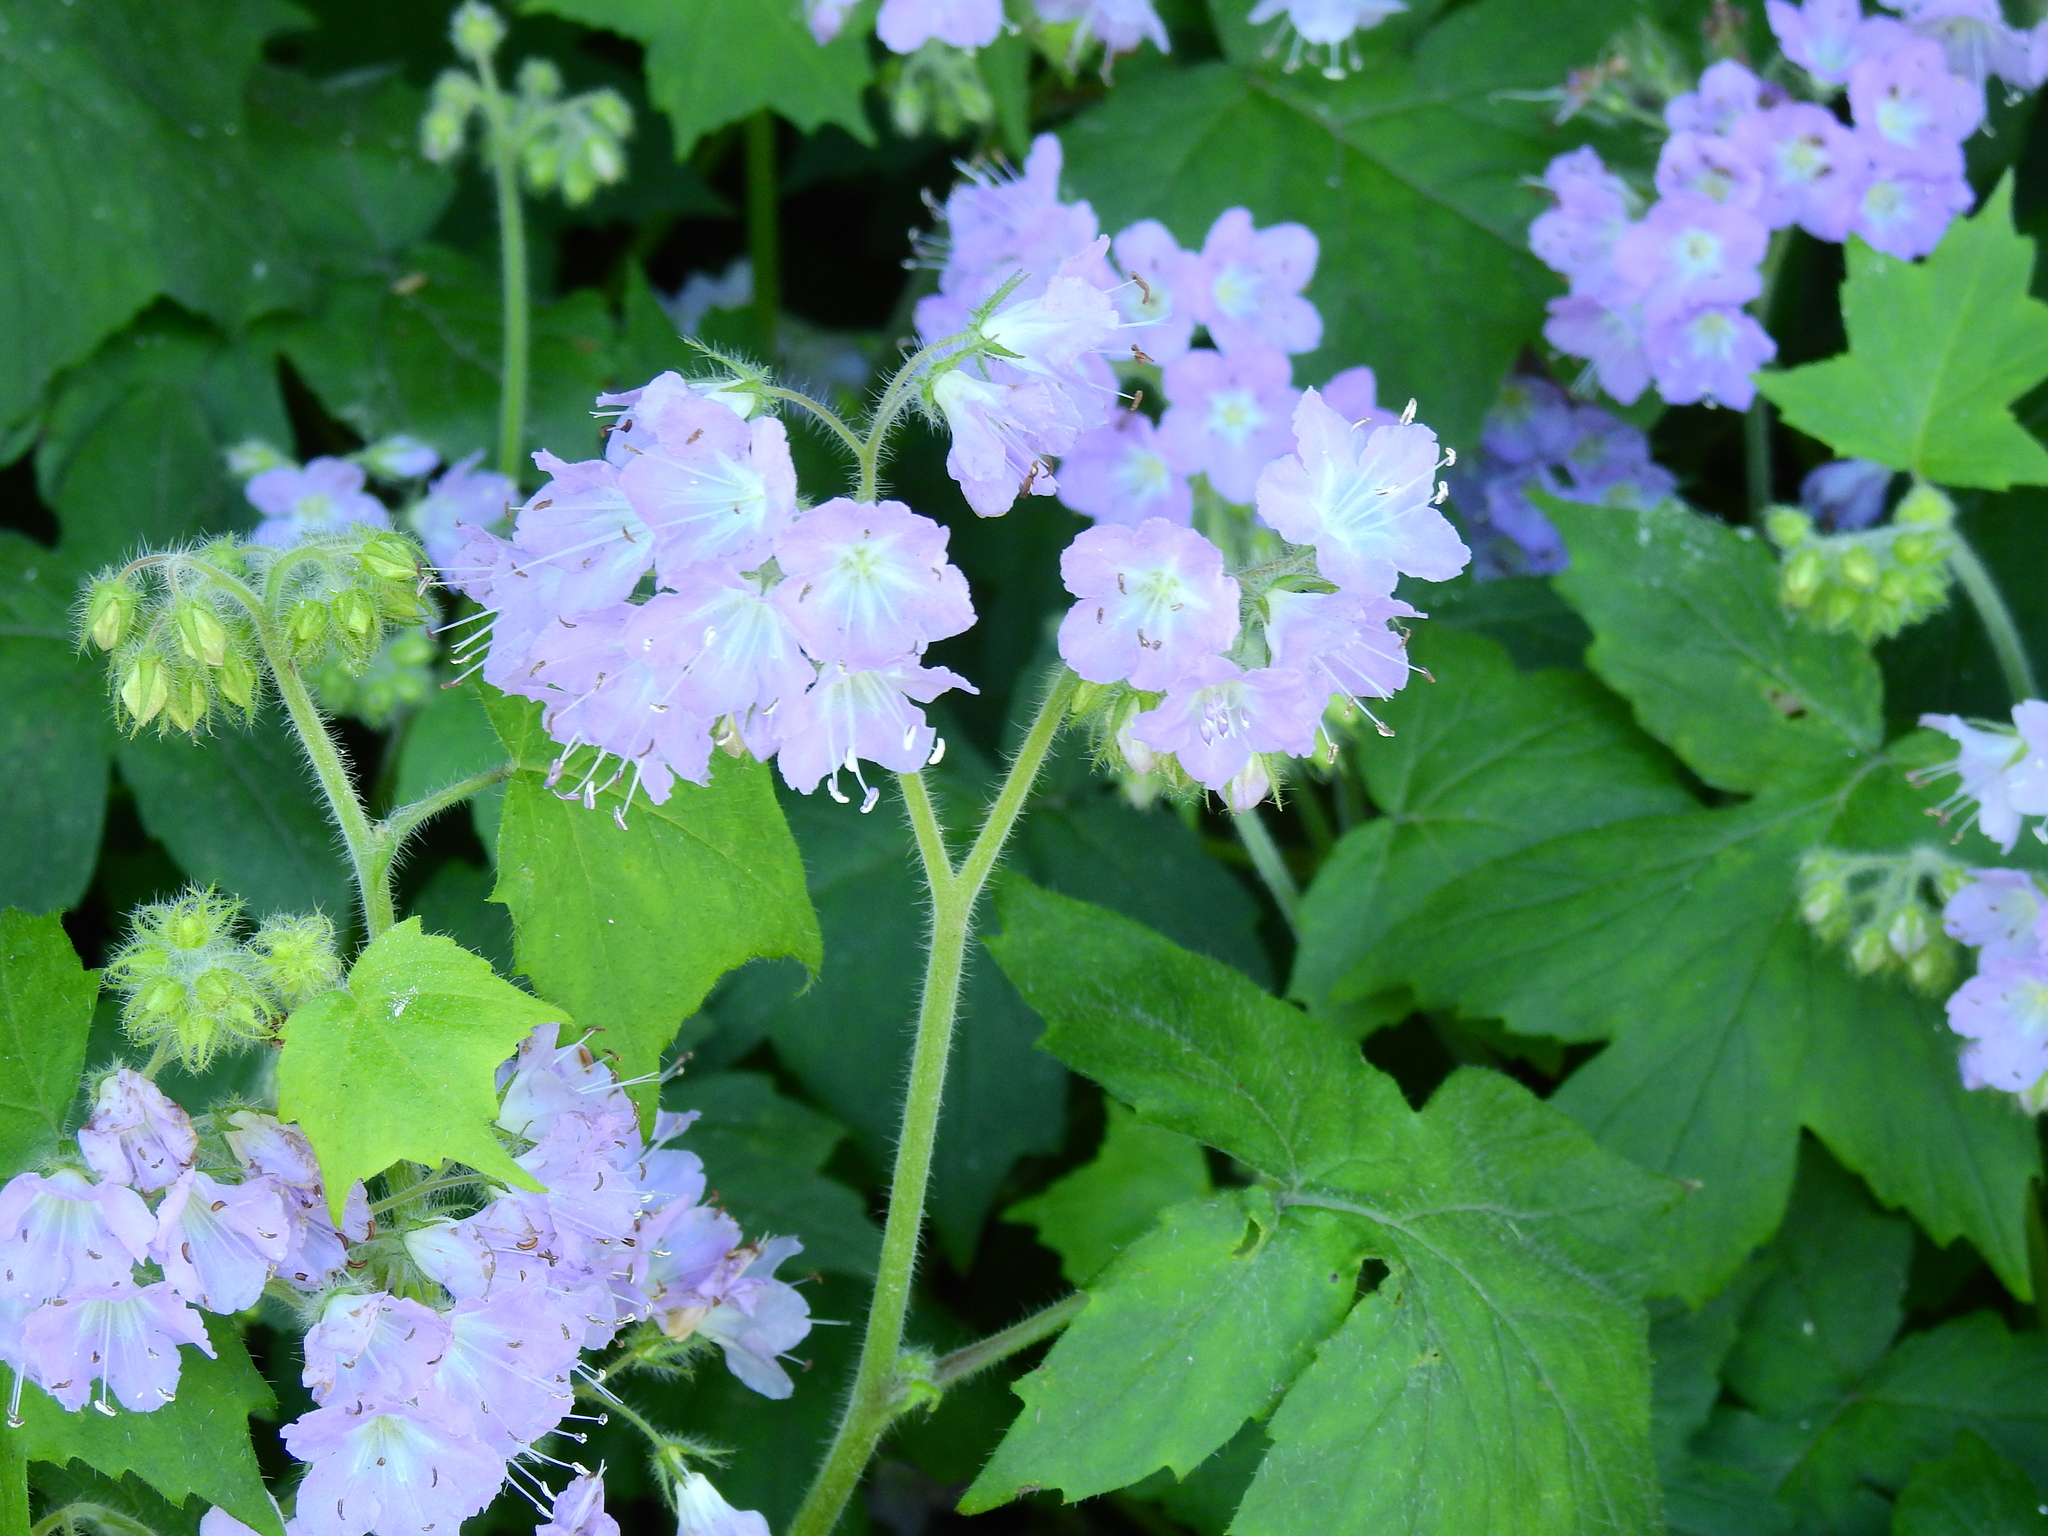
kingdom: Plantae
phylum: Tracheophyta
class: Magnoliopsida
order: Boraginales
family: Hydrophyllaceae
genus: Hydrophyllum
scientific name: Hydrophyllum appendiculatum
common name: Appendaged waterleaf
